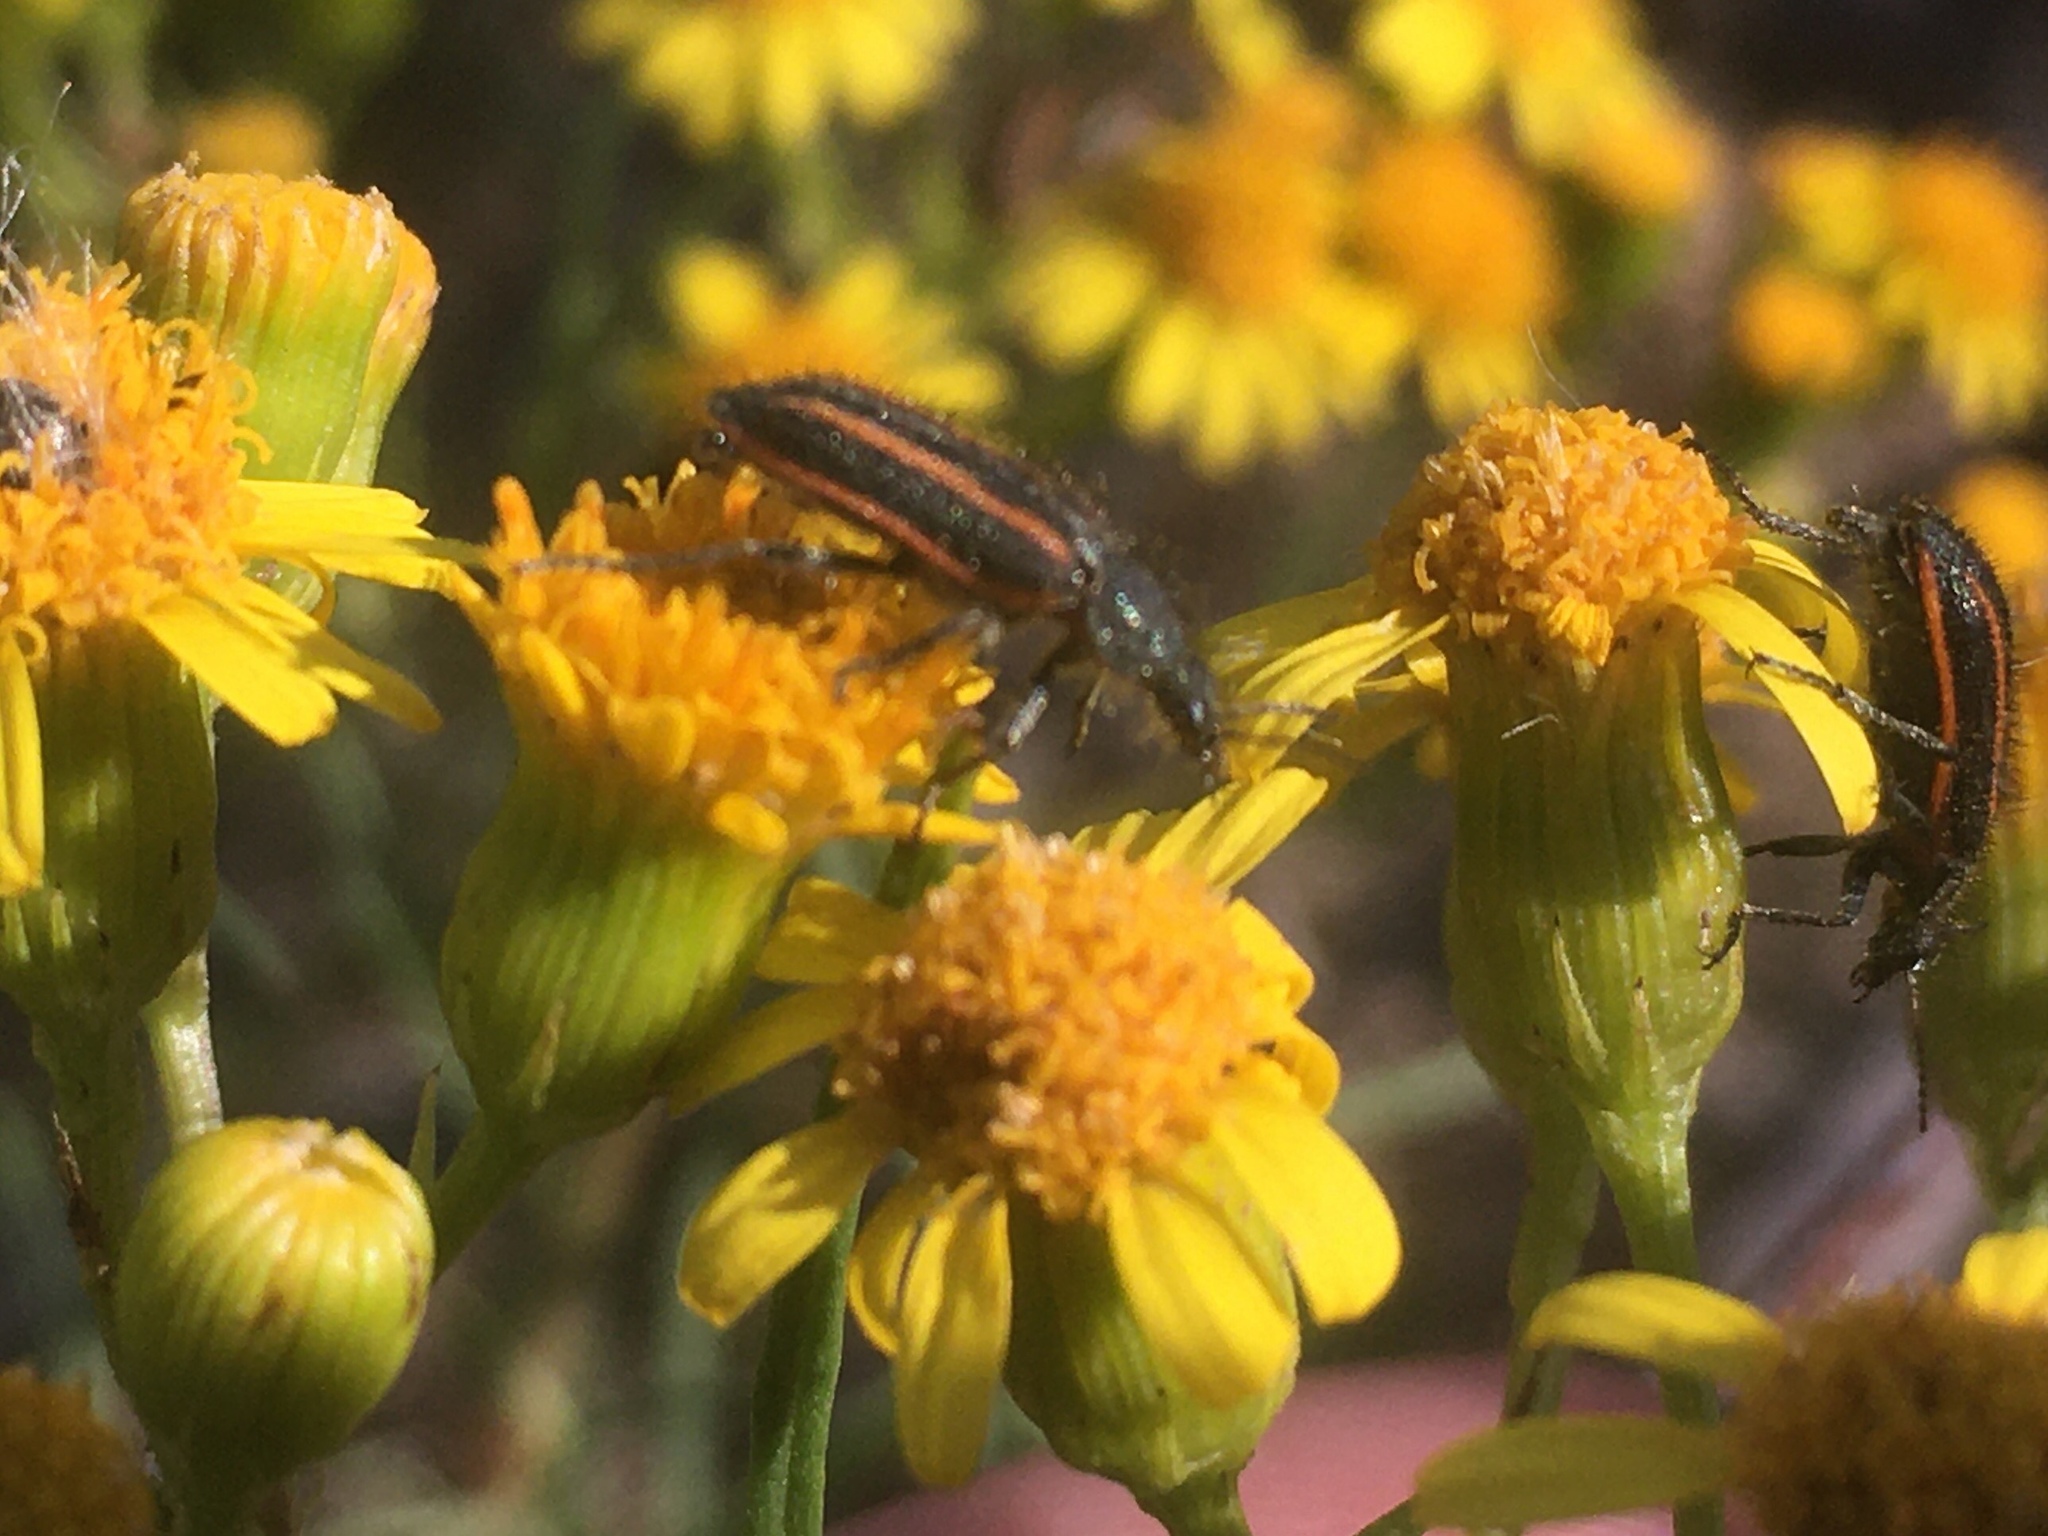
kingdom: Animalia
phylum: Arthropoda
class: Insecta
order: Coleoptera
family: Melyridae
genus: Astylus
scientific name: Astylus
